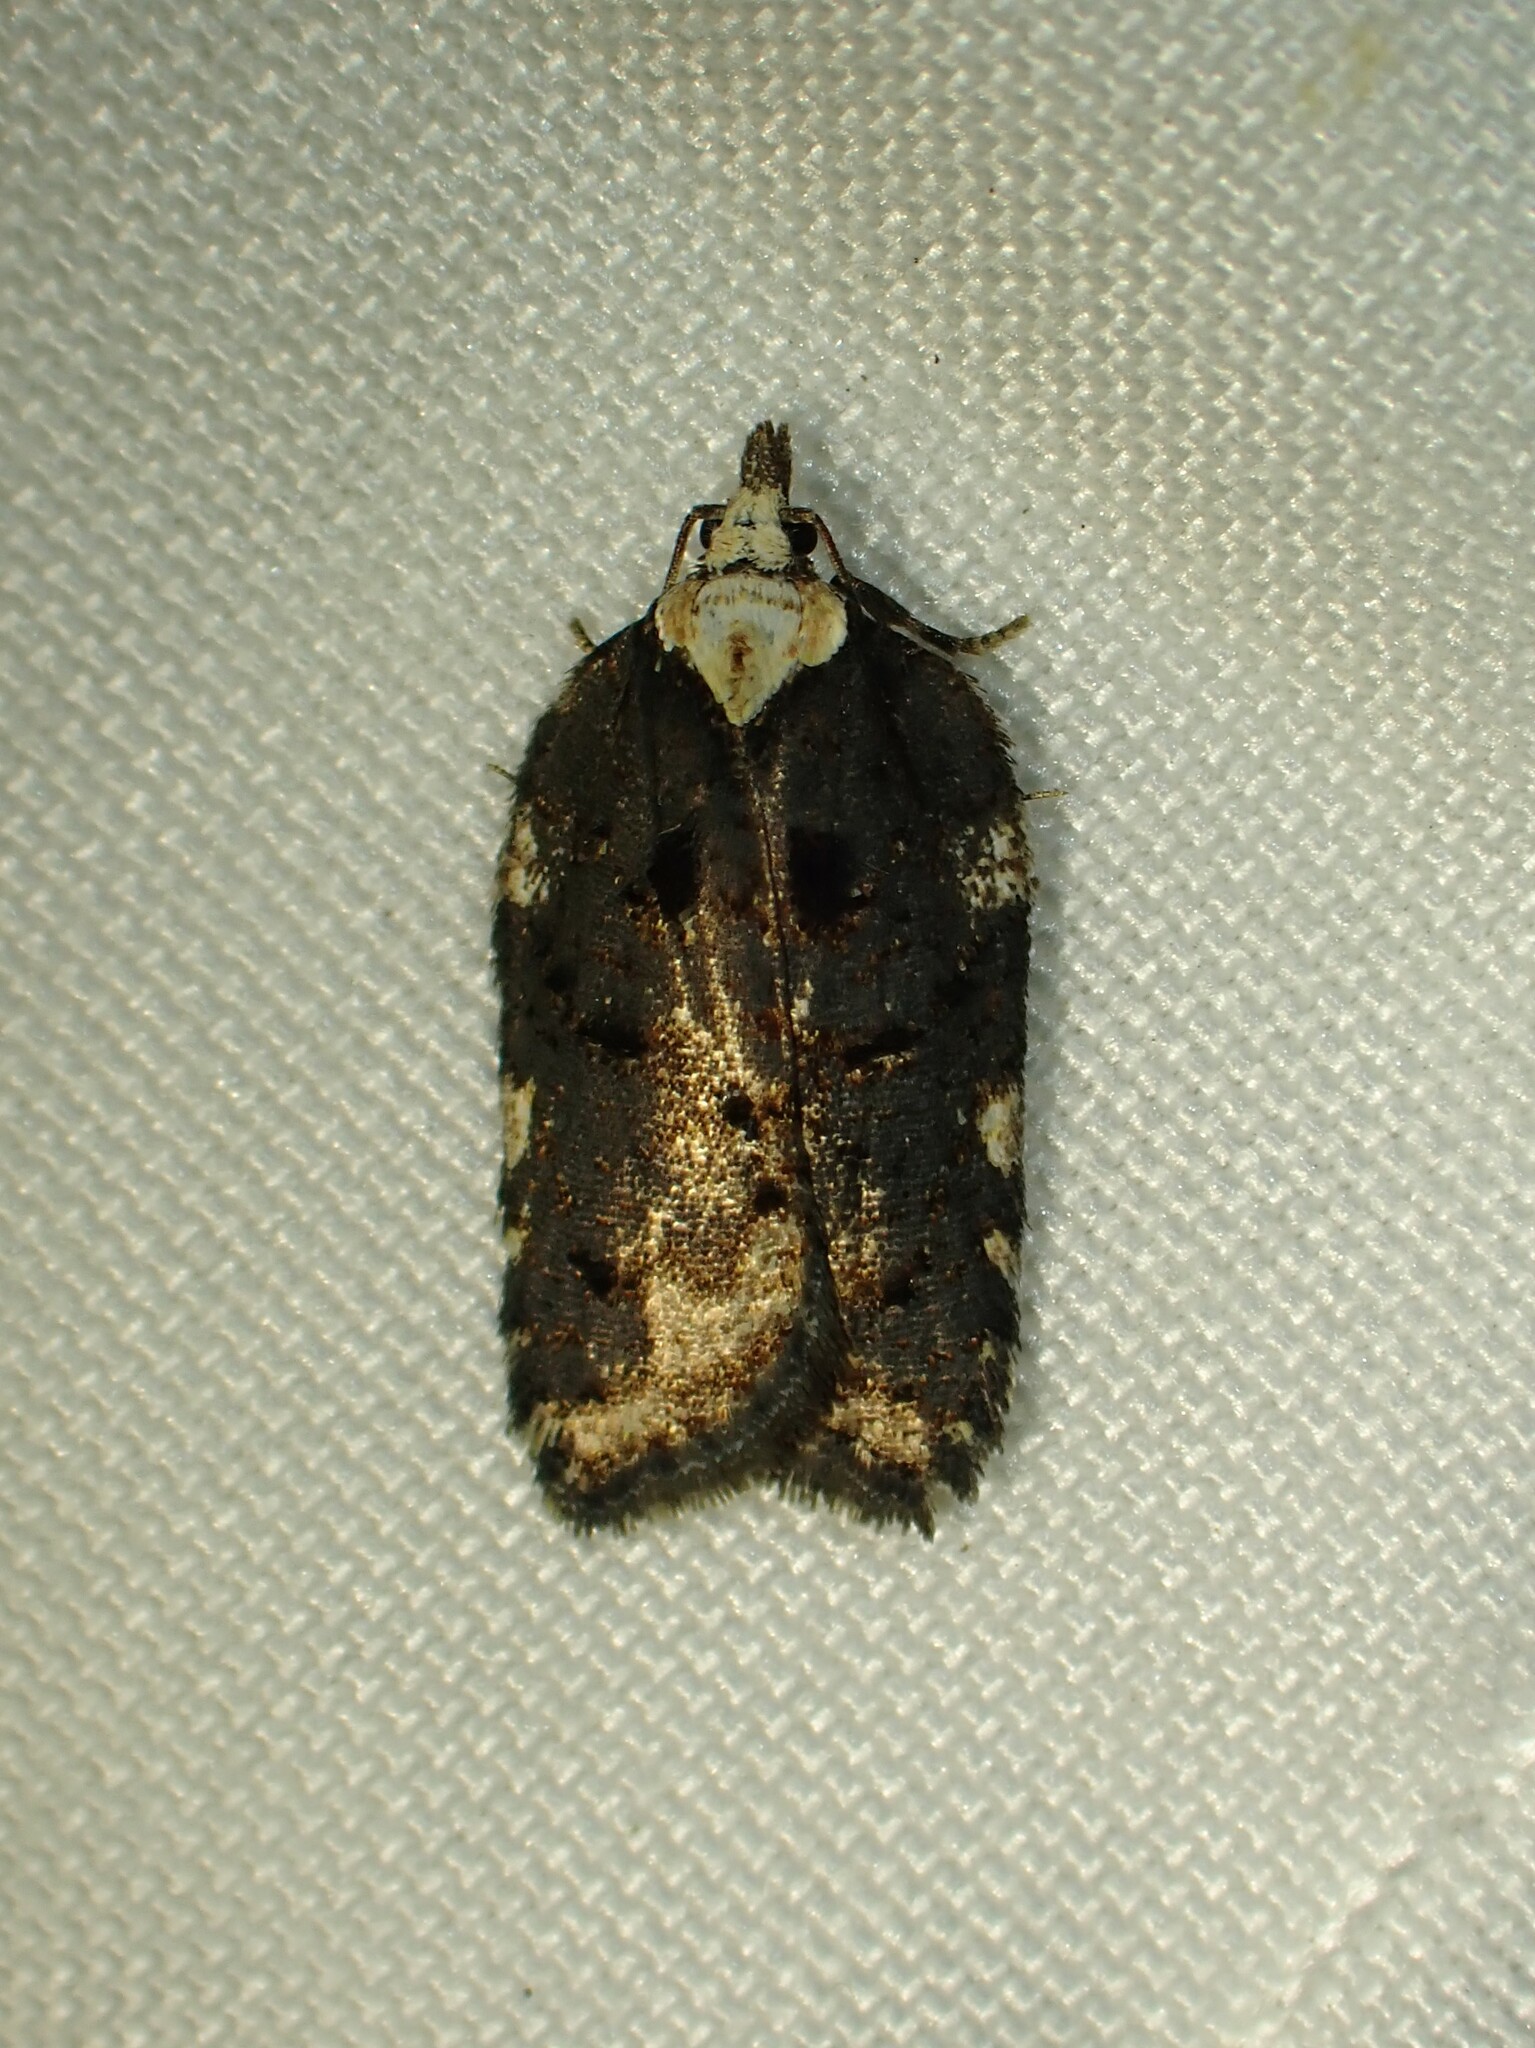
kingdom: Animalia
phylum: Arthropoda
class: Insecta
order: Lepidoptera
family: Tortricidae
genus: Acleris
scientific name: Acleris flavivittana
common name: Multiform leafroller moth
